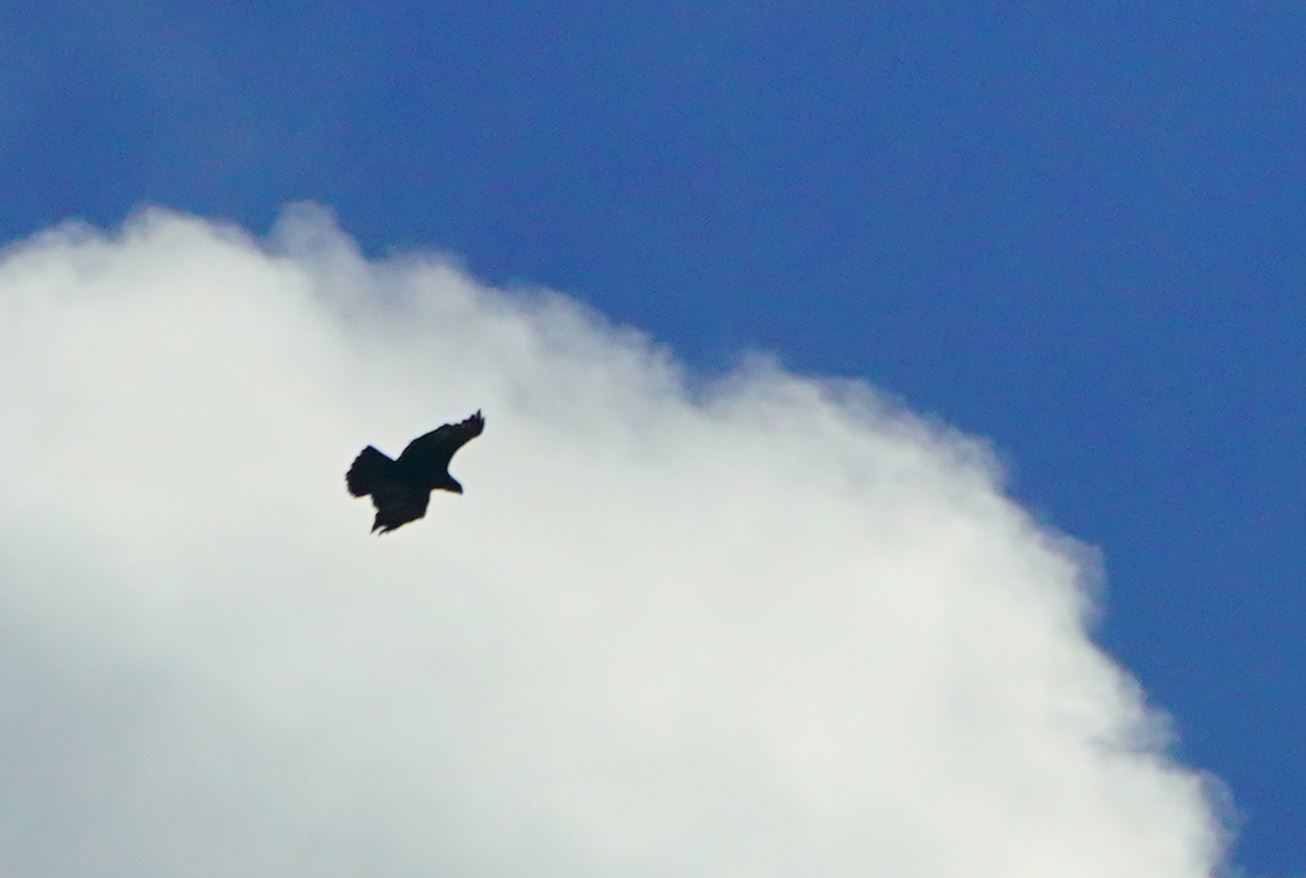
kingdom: Animalia
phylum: Chordata
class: Aves
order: Accipitriformes
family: Accipitridae
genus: Aquila
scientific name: Aquila chrysaetos
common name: Golden eagle
